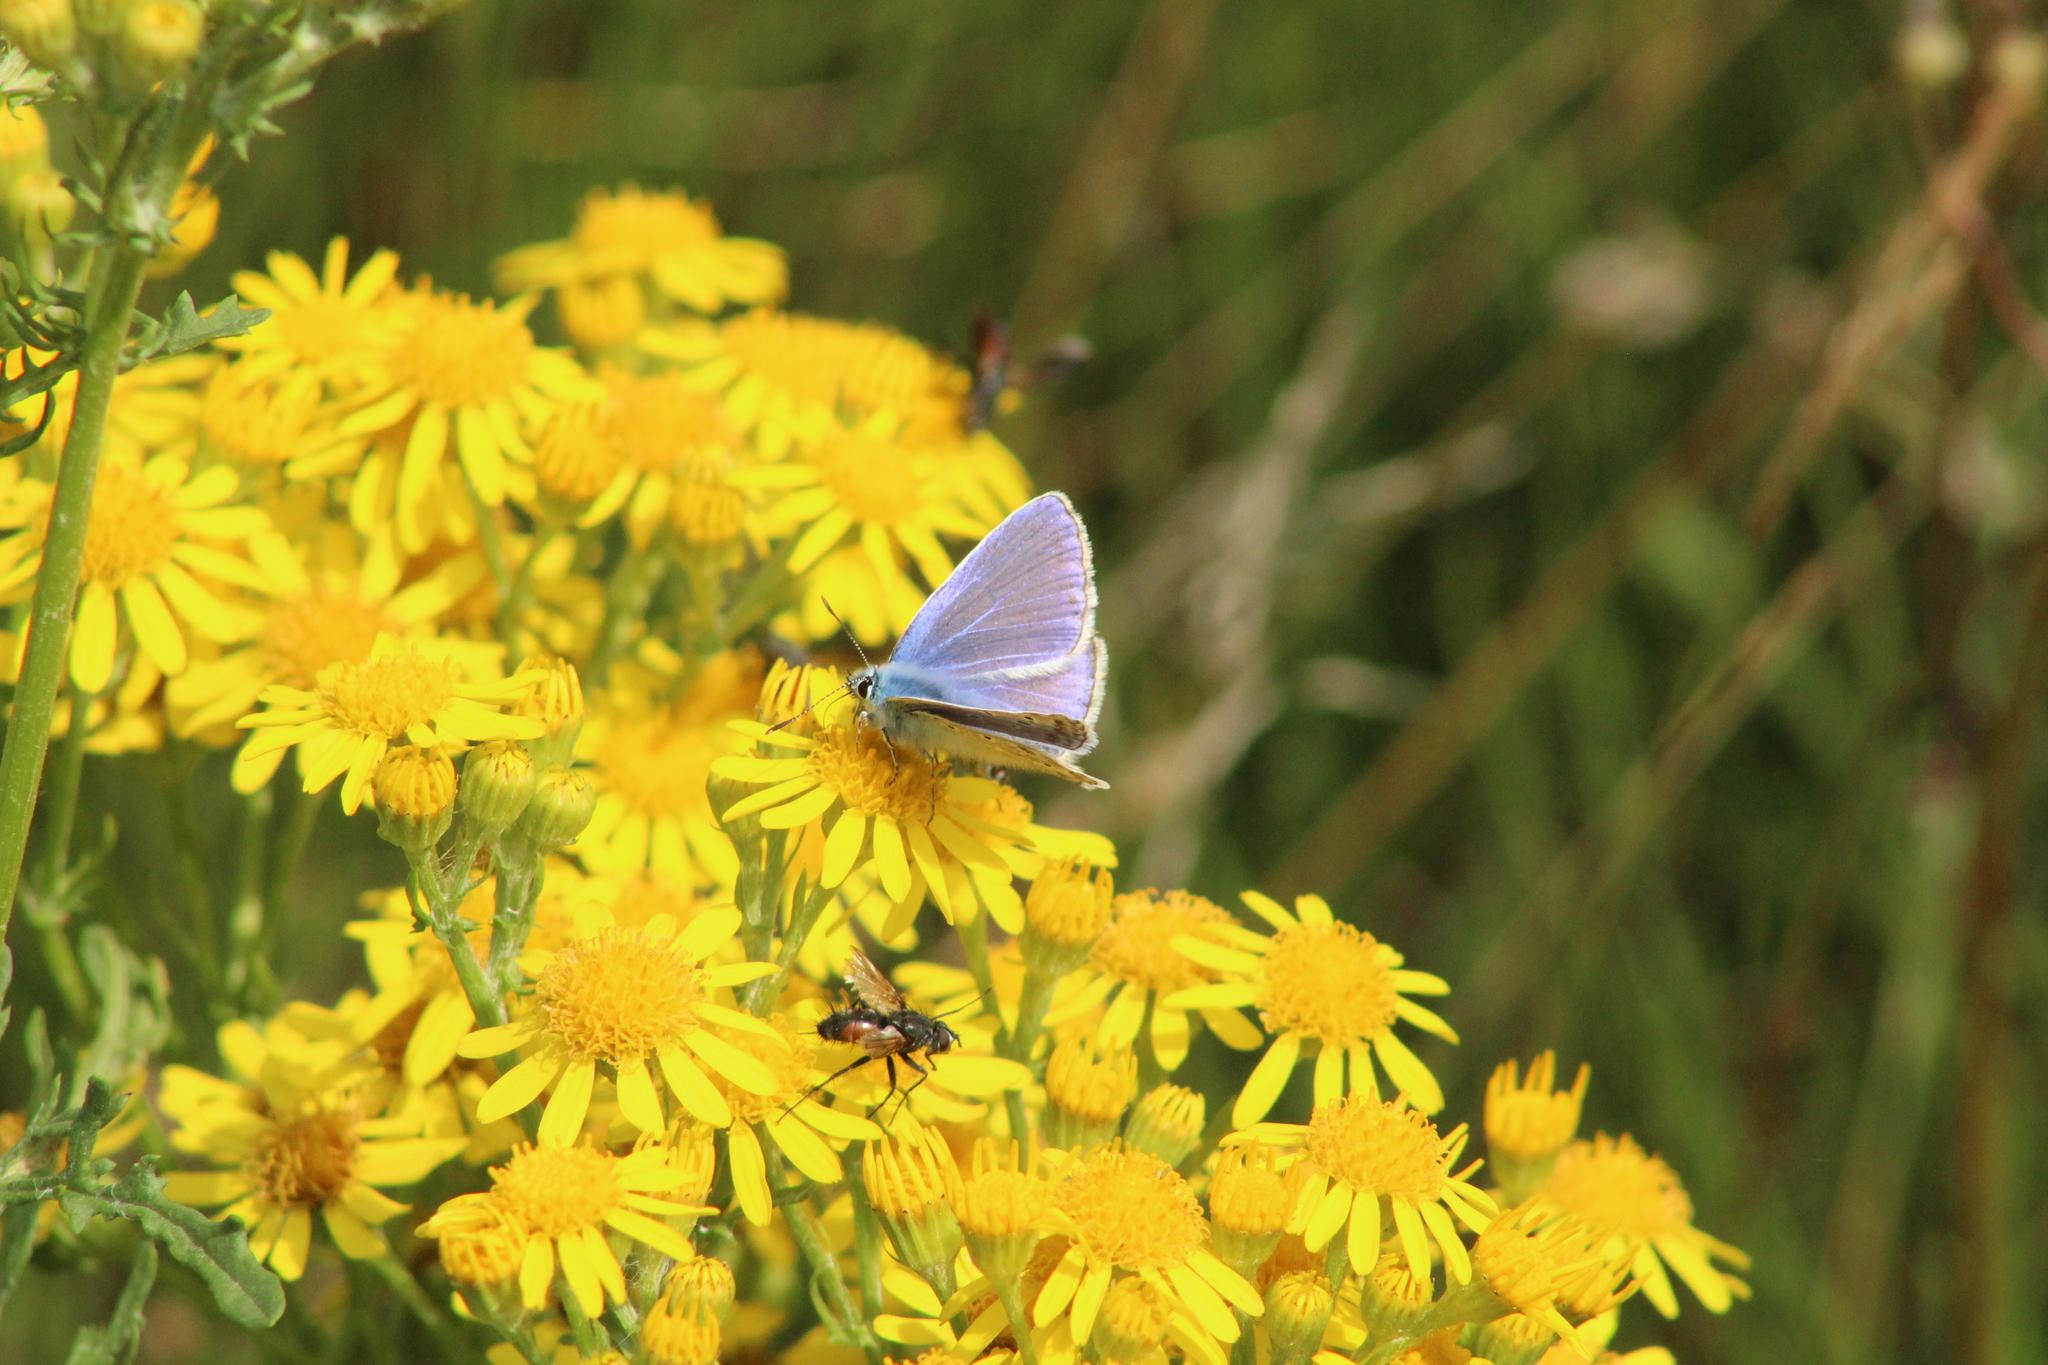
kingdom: Animalia
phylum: Arthropoda
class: Insecta
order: Lepidoptera
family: Lycaenidae
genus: Polyommatus
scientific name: Polyommatus icarus
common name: Common blue
